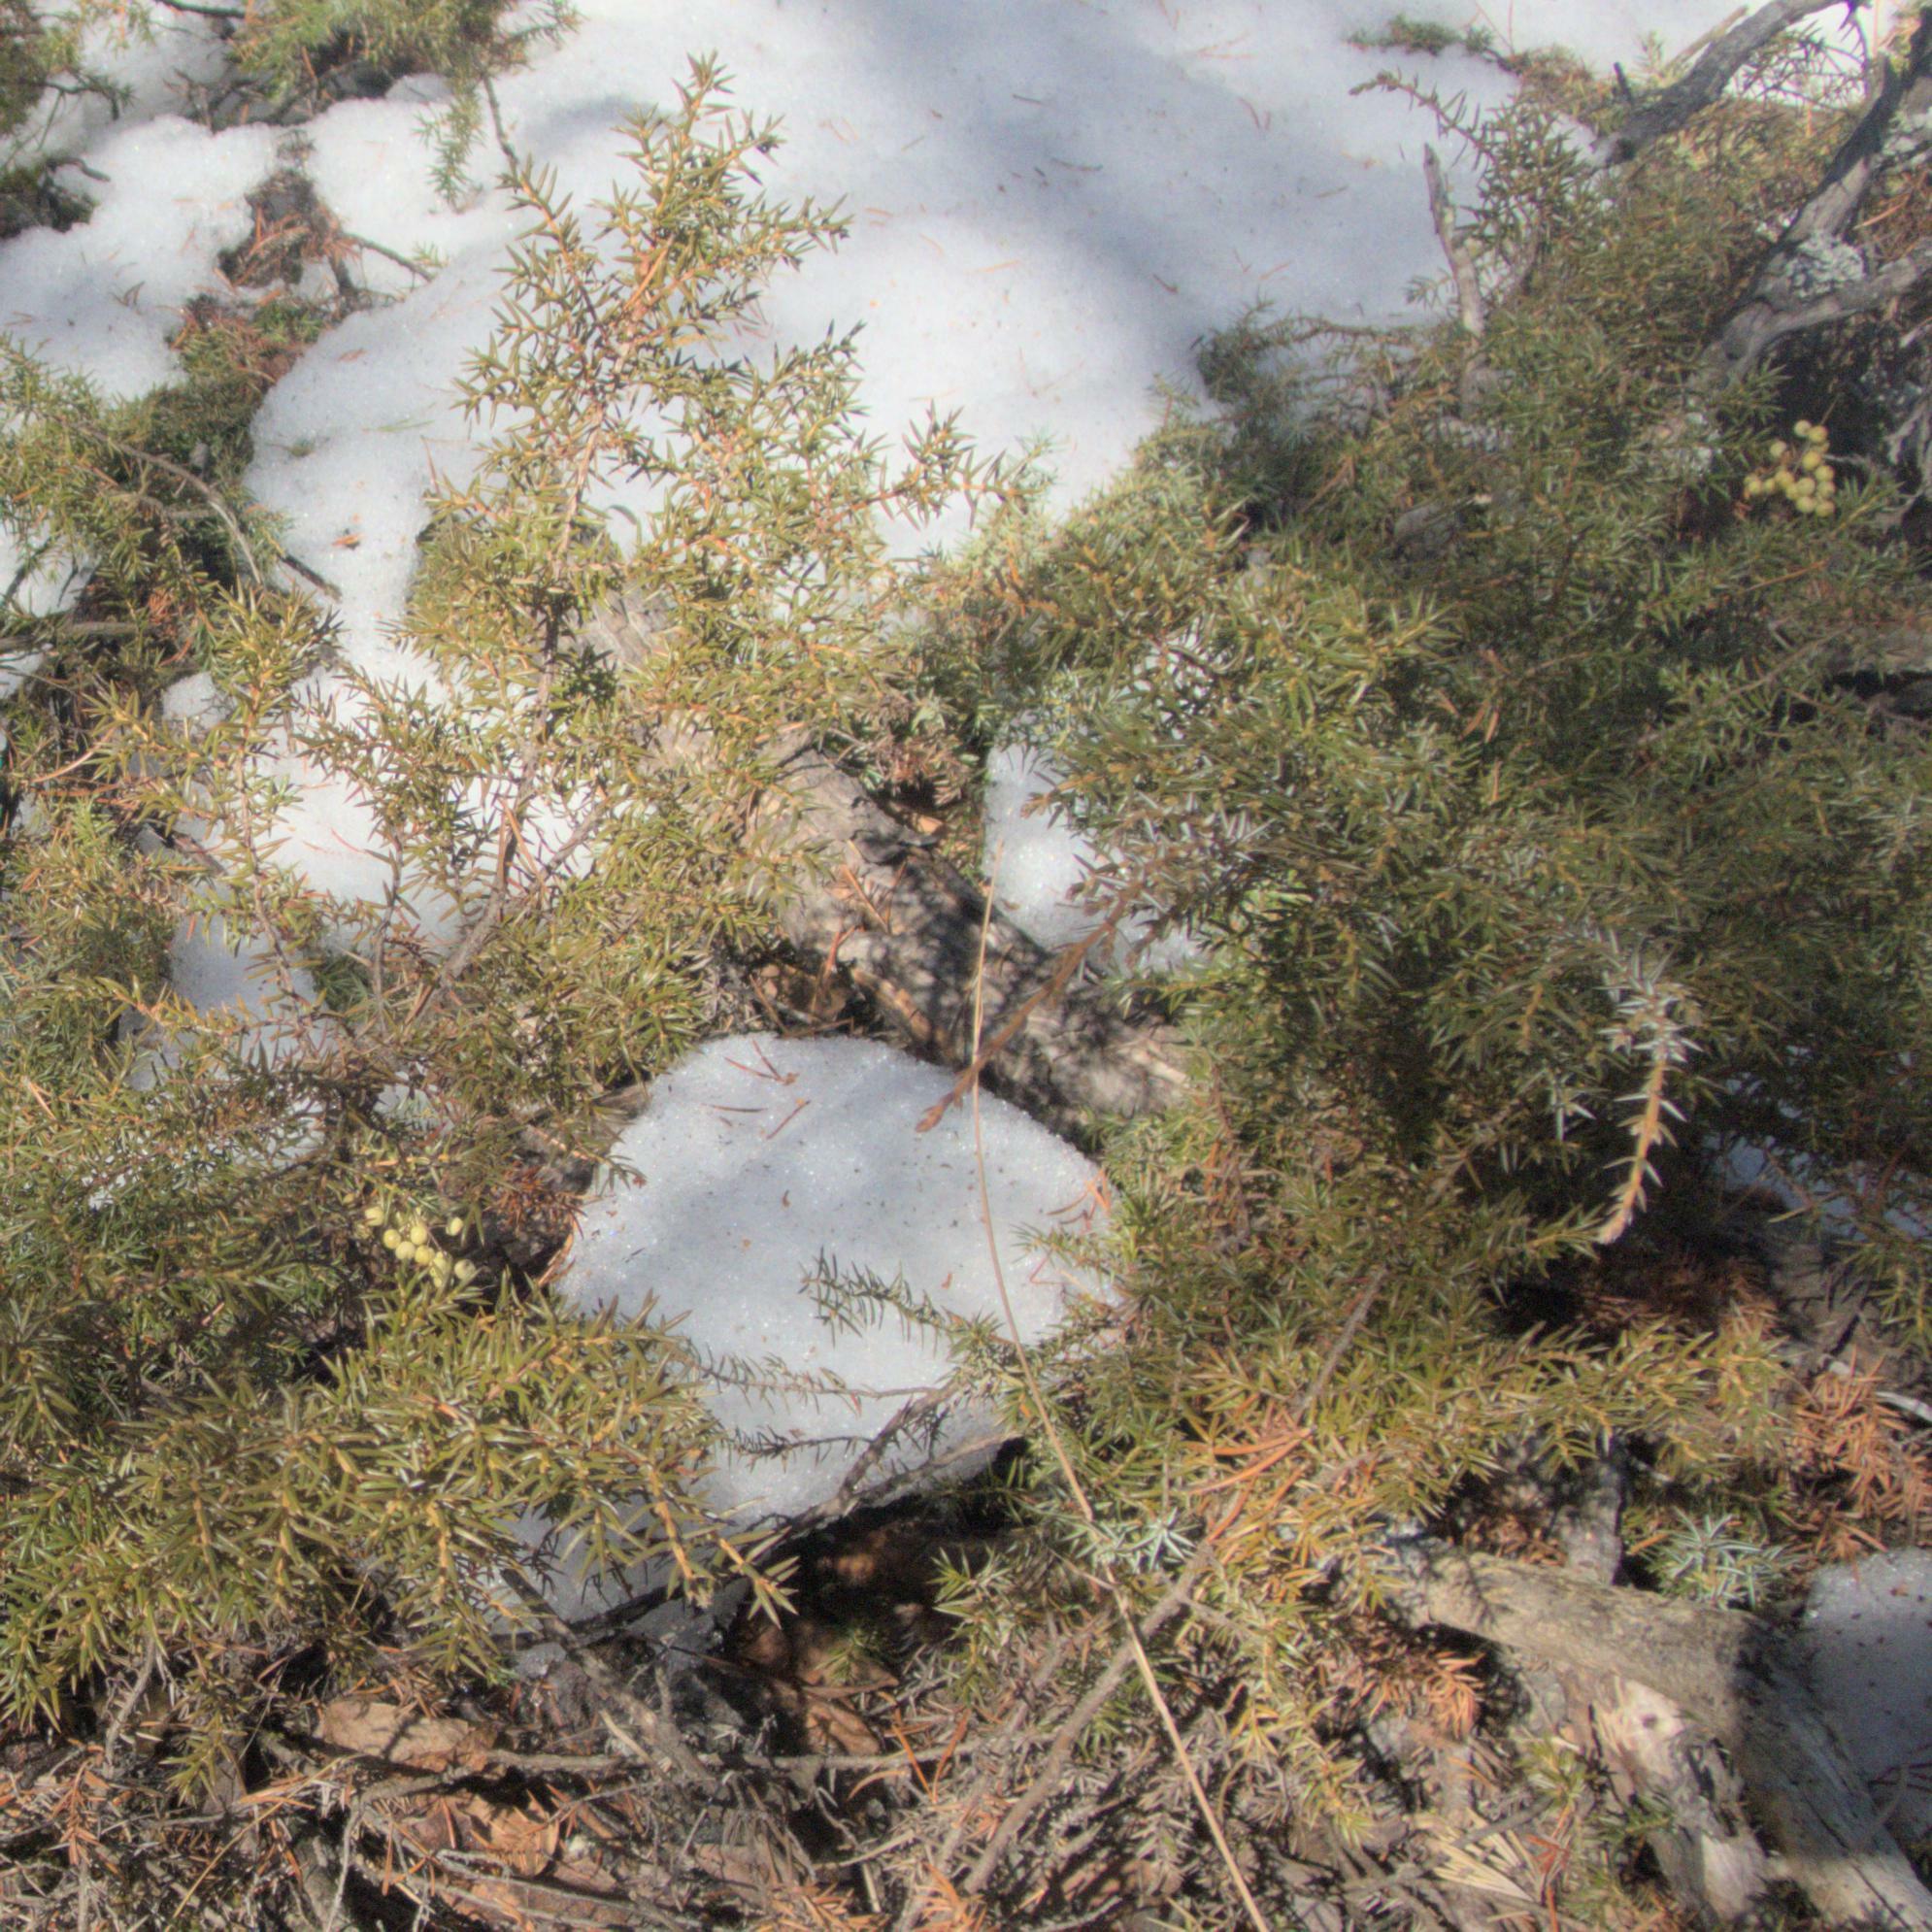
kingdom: Plantae
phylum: Tracheophyta
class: Pinopsida
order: Pinales
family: Cupressaceae
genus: Juniperus
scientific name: Juniperus communis
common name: Common juniper
